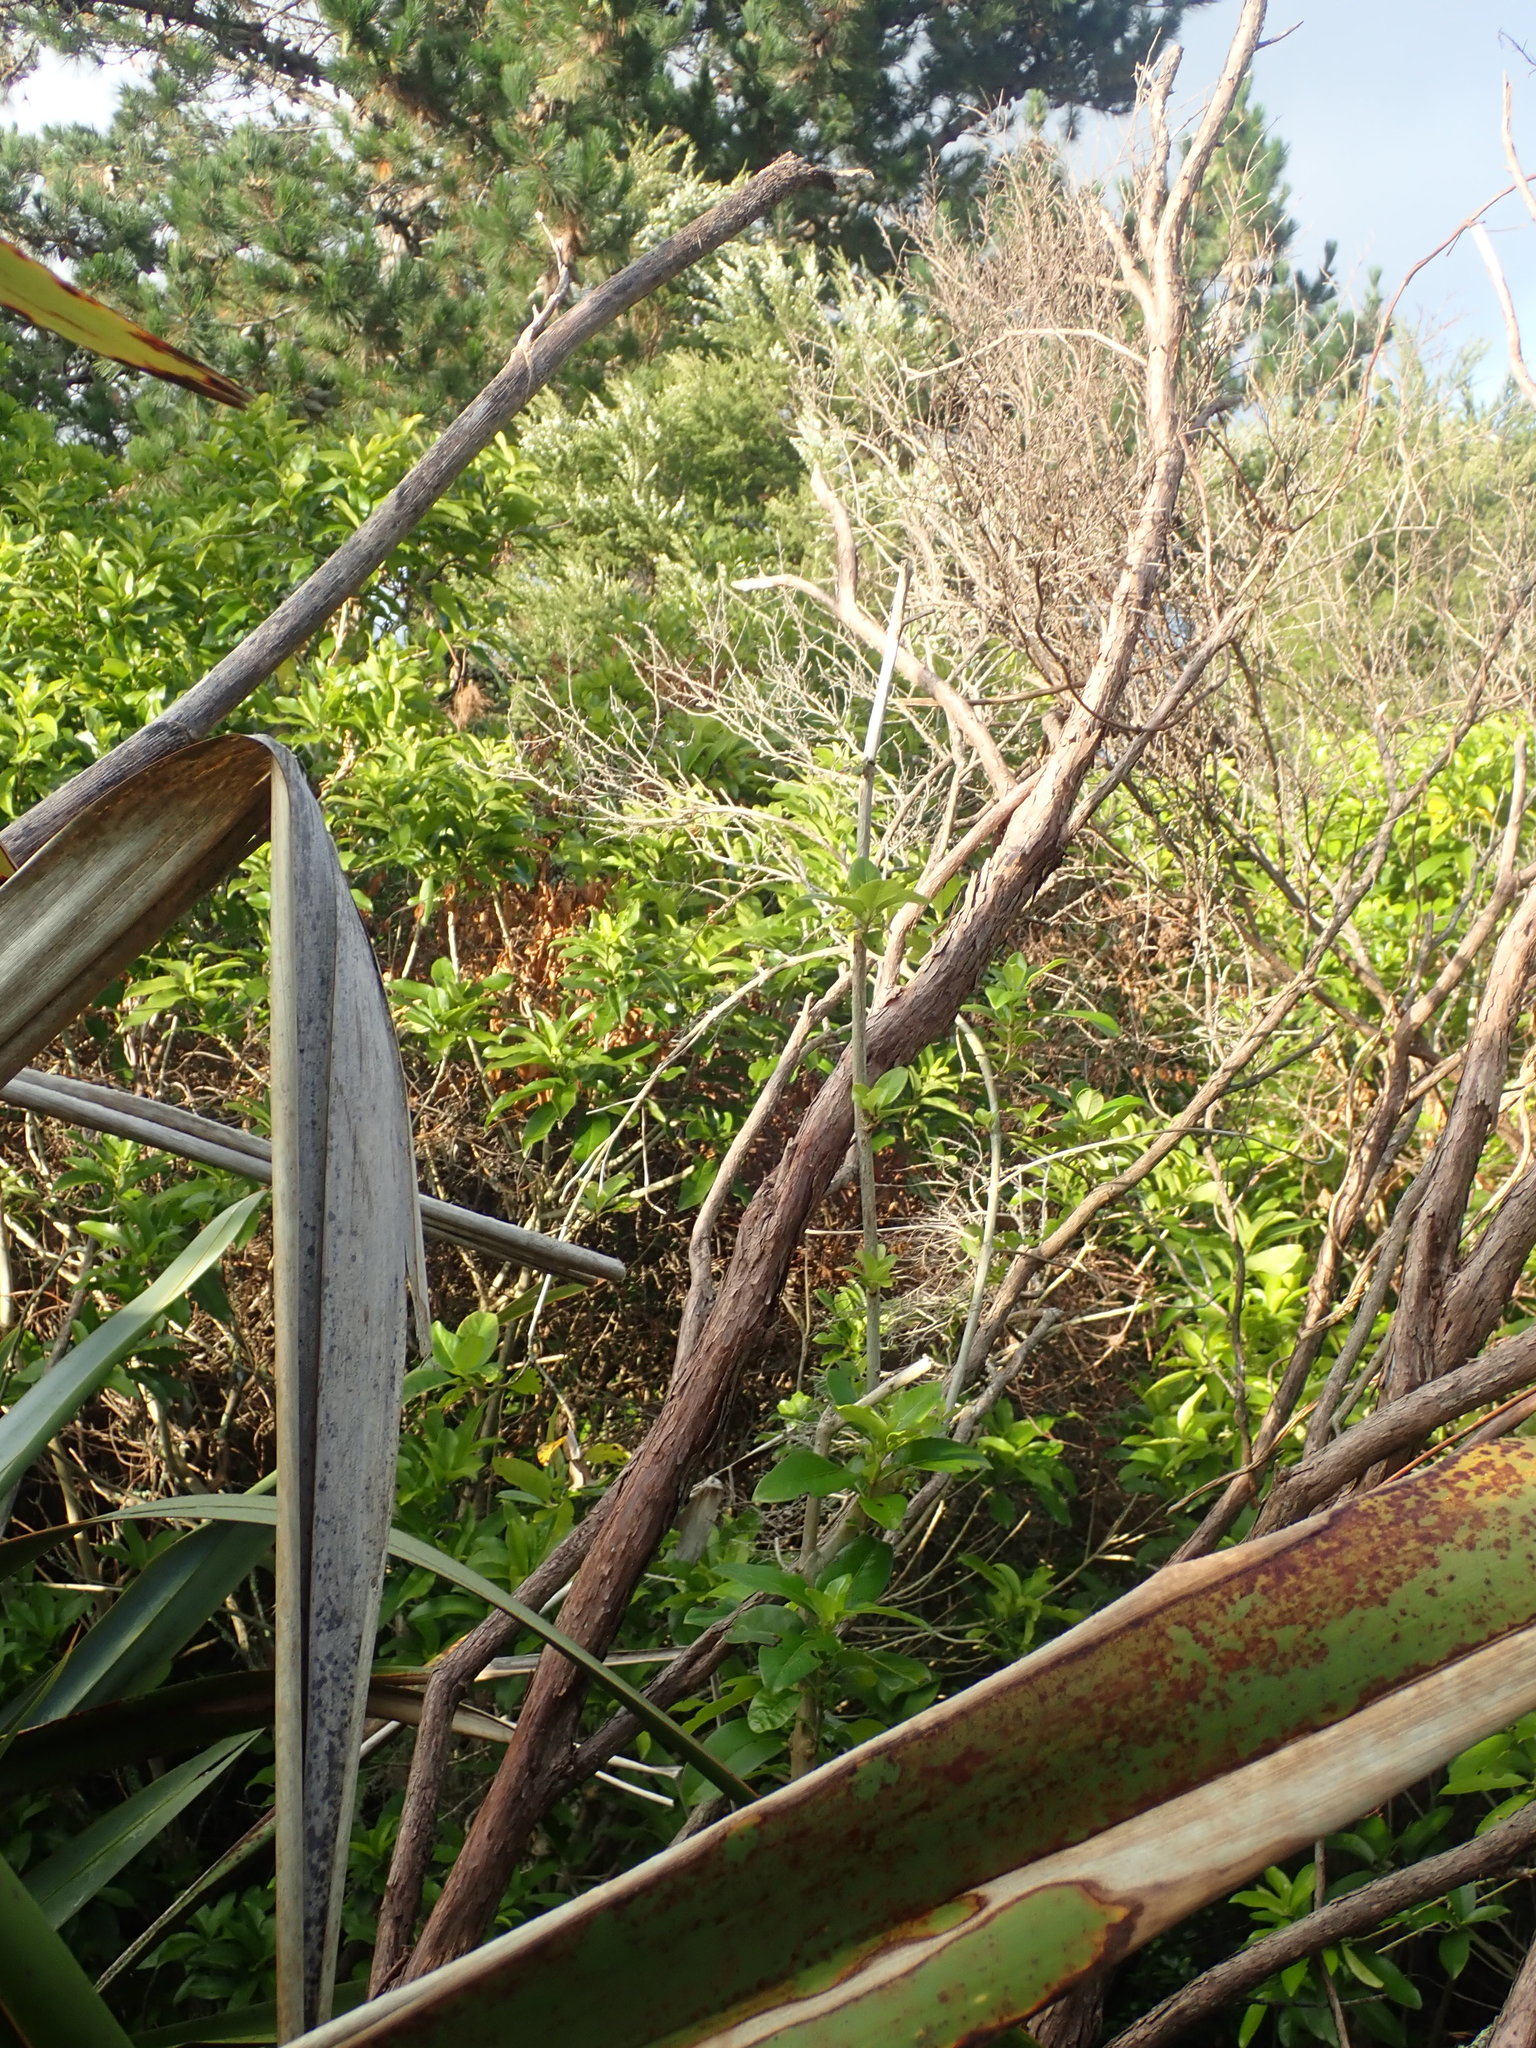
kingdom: Plantae
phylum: Tracheophyta
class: Magnoliopsida
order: Malpighiales
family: Violaceae
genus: Melicytus
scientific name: Melicytus ramiflorus
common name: Mahoe
